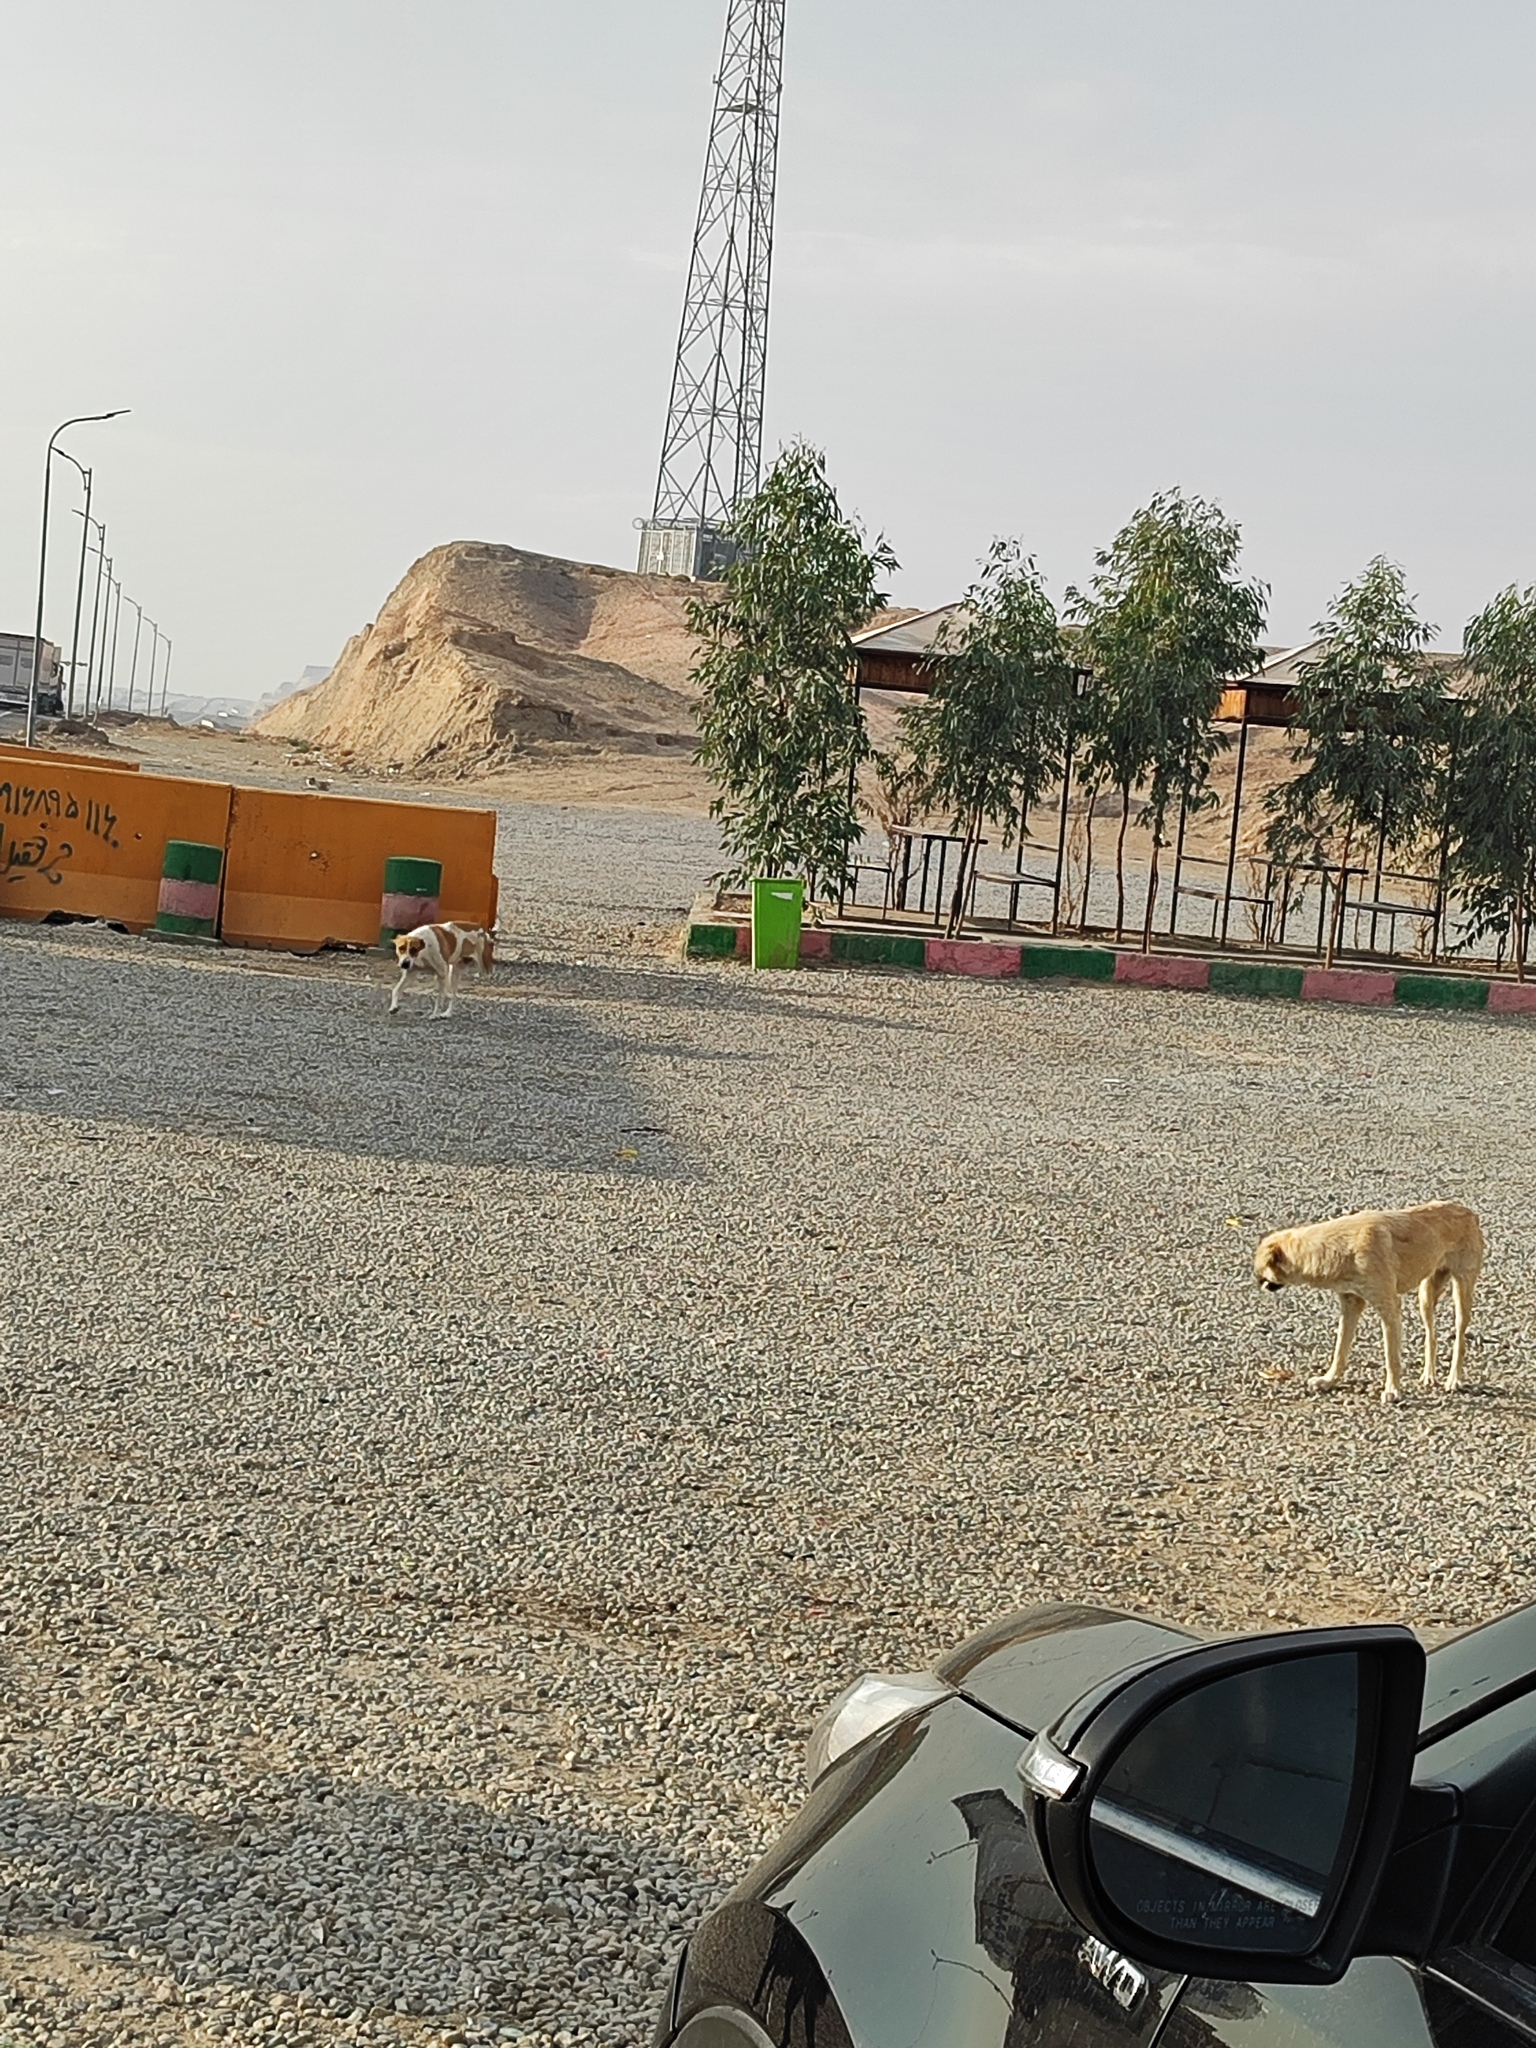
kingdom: Animalia
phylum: Chordata
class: Mammalia
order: Carnivora
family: Canidae
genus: Canis
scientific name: Canis lupus
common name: Gray wolf
